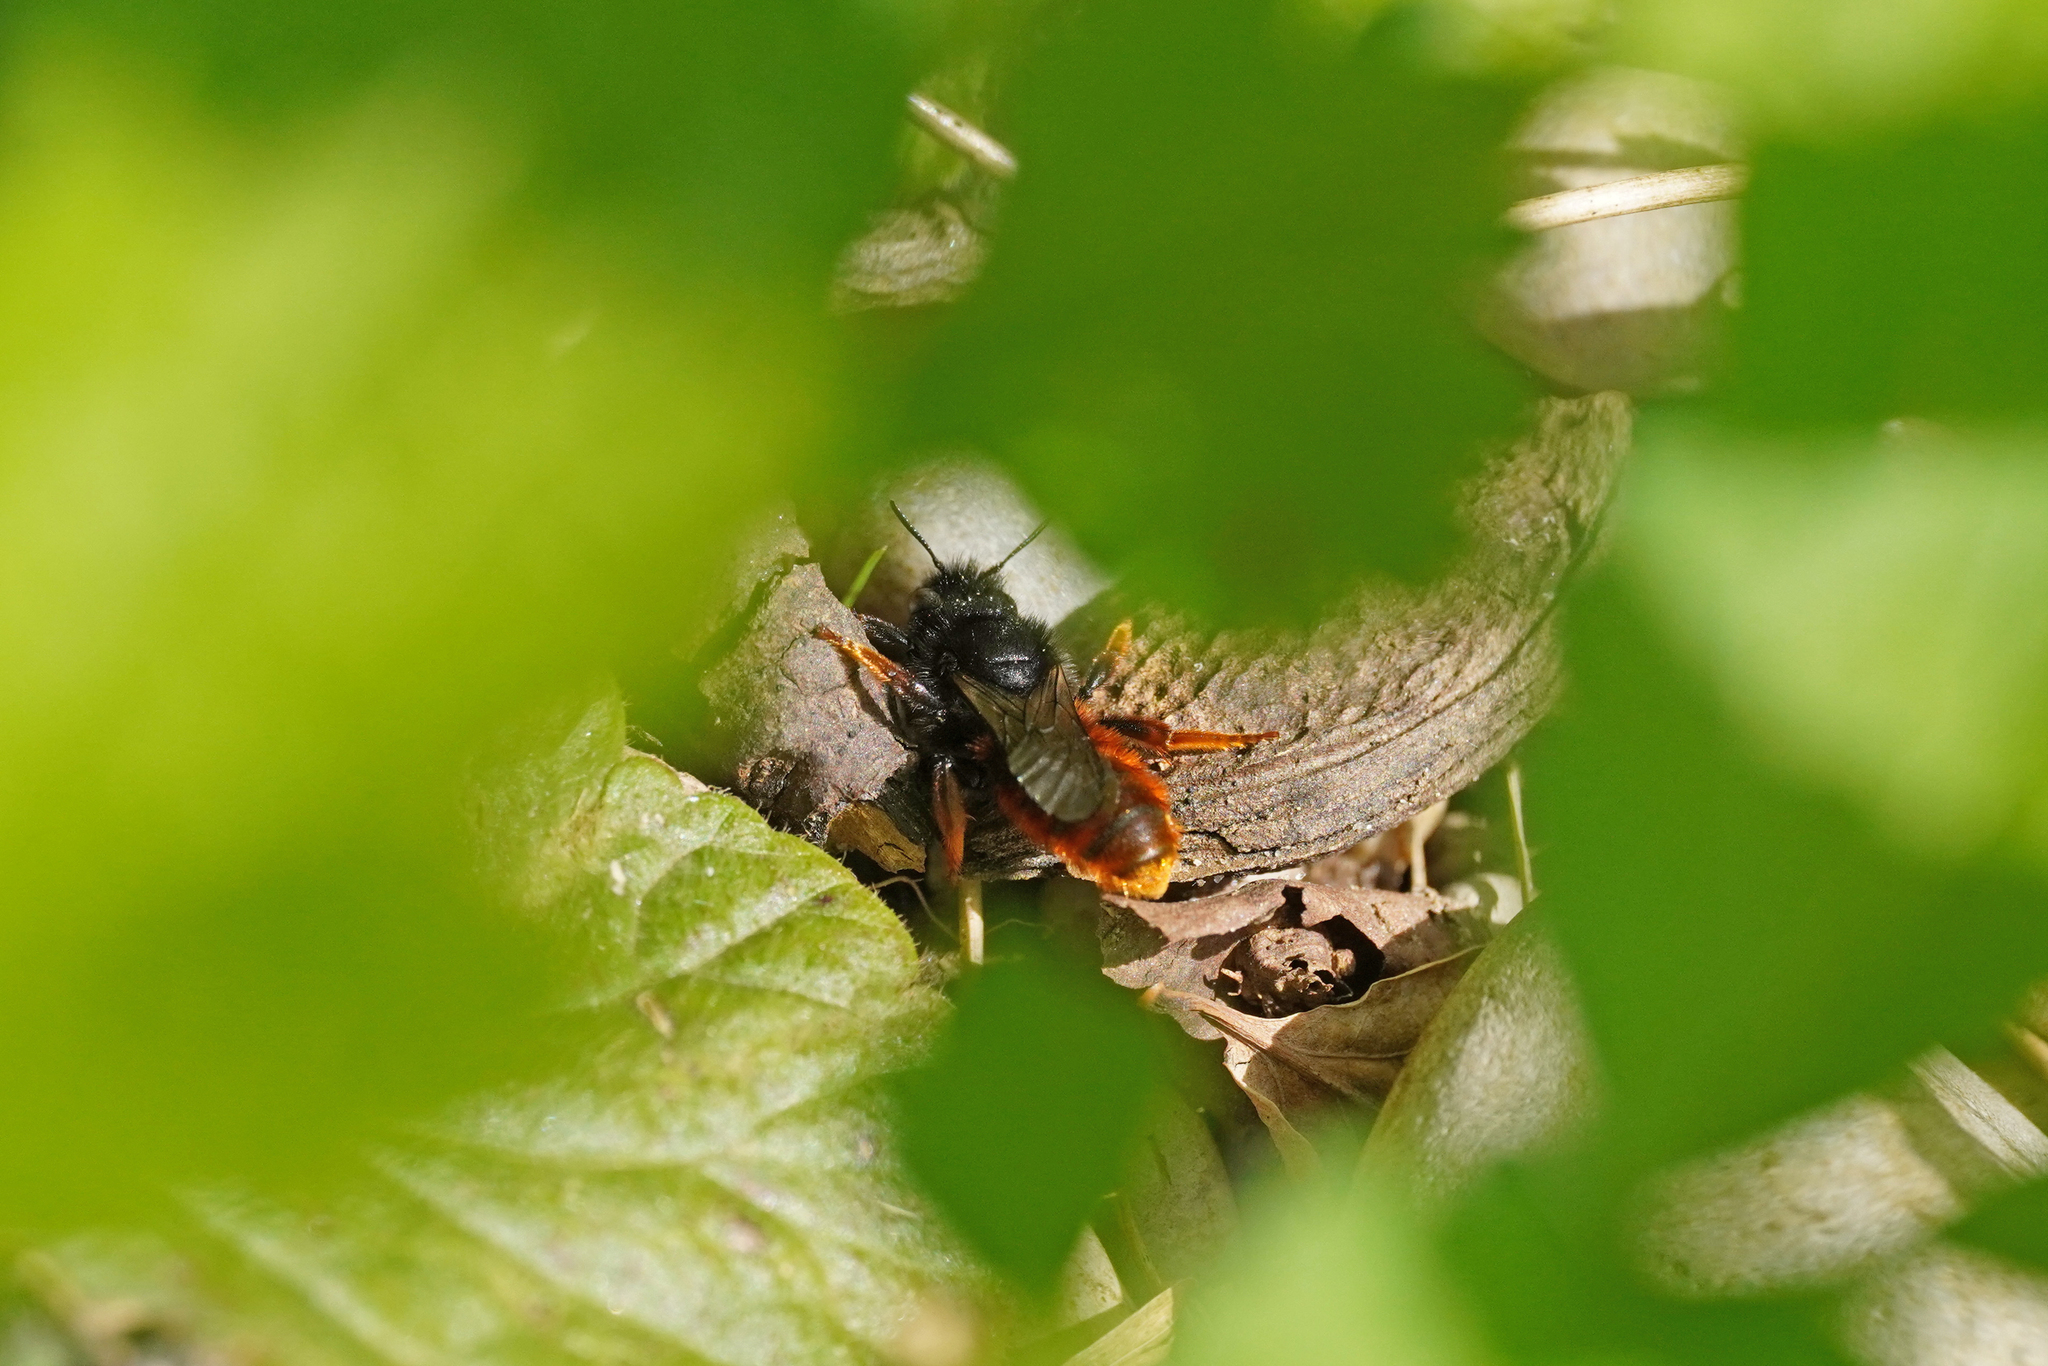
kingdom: Animalia
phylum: Arthropoda
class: Insecta
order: Hymenoptera
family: Megachilidae
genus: Osmia
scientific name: Osmia bicolor
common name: Red-tailed mason bee
